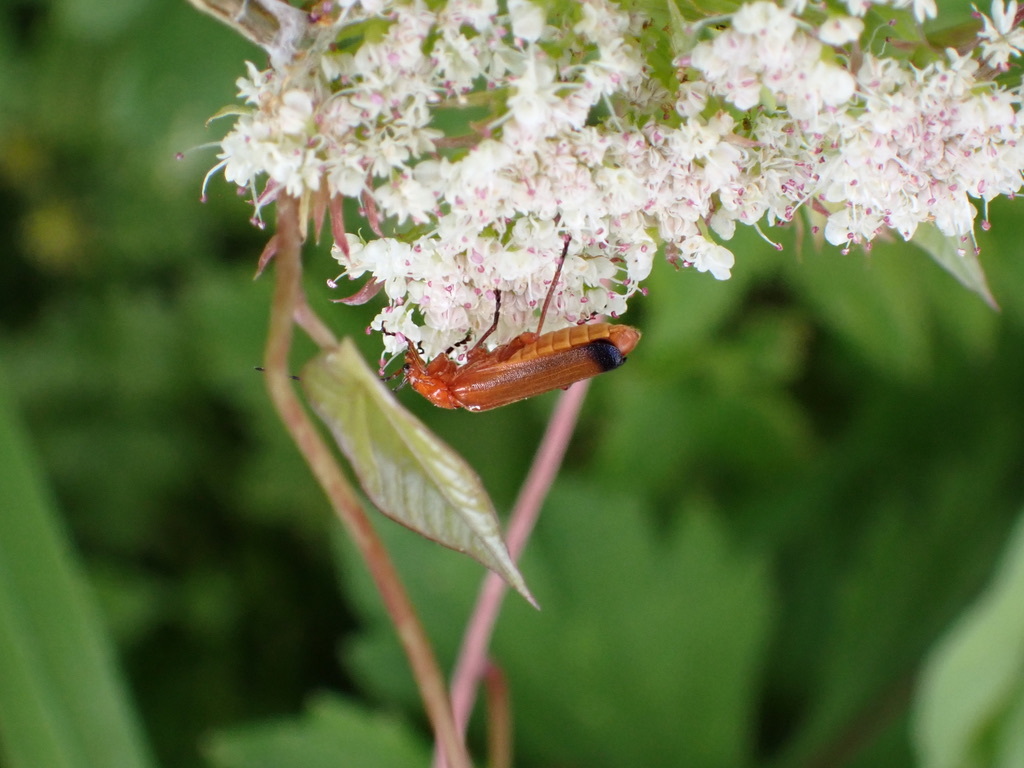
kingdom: Animalia
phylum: Arthropoda
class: Insecta
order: Coleoptera
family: Cantharidae
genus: Rhagonycha
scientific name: Rhagonycha fulva
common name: Common red soldier beetle
